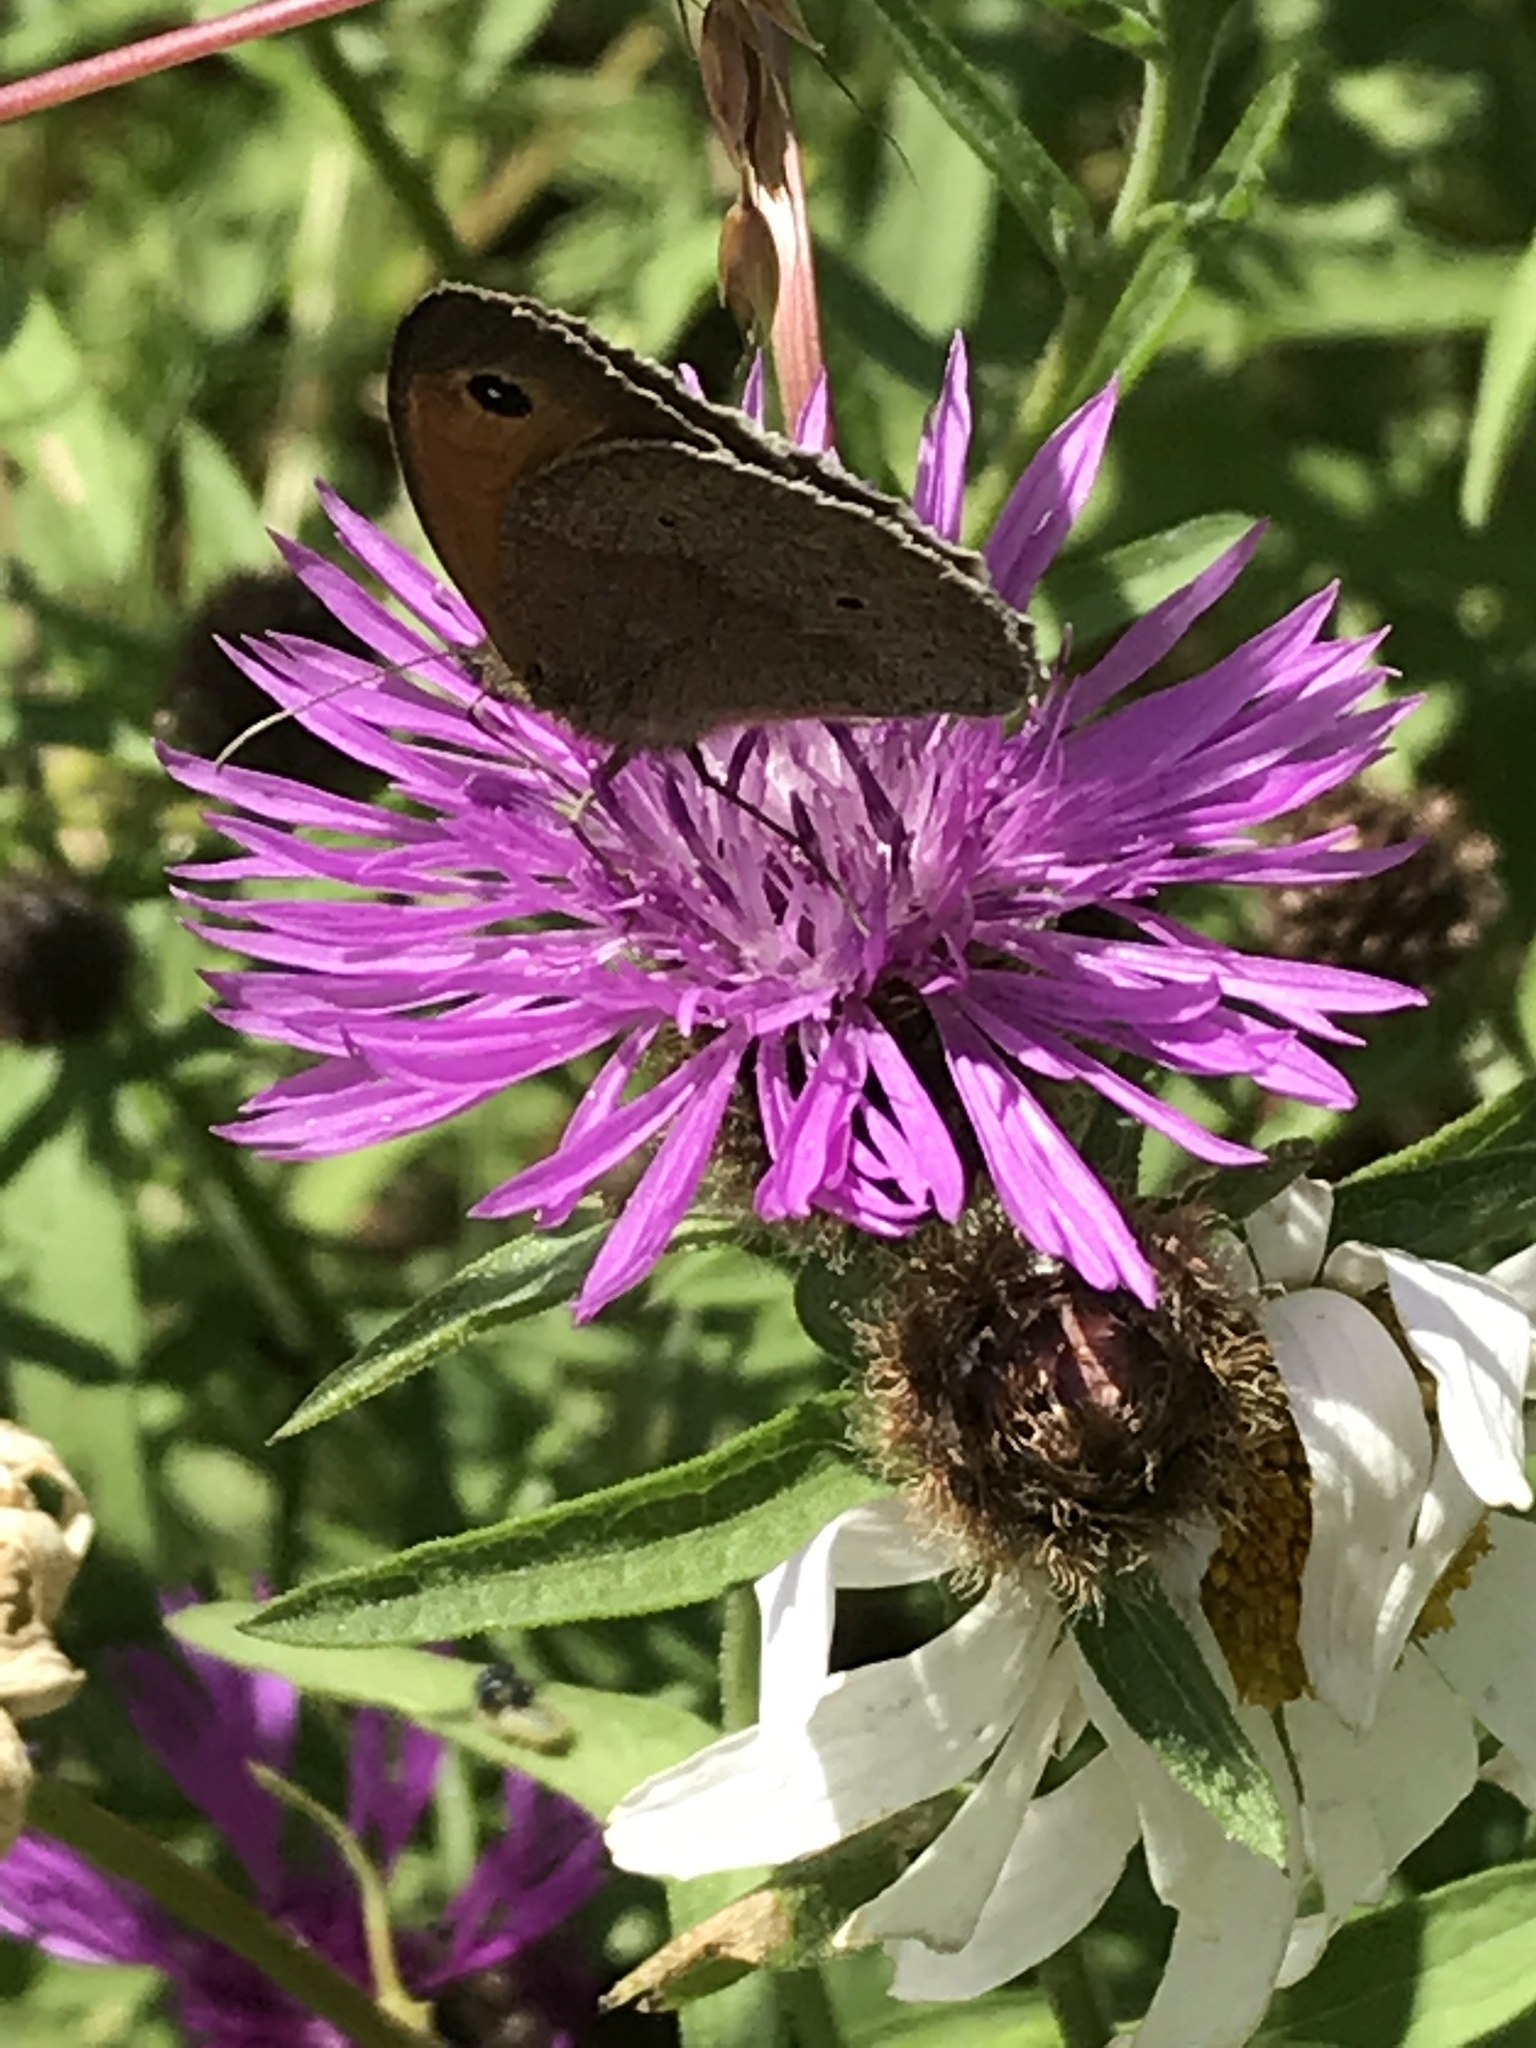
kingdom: Animalia
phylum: Arthropoda
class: Insecta
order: Lepidoptera
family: Nymphalidae
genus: Maniola
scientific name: Maniola jurtina
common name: Meadow brown
